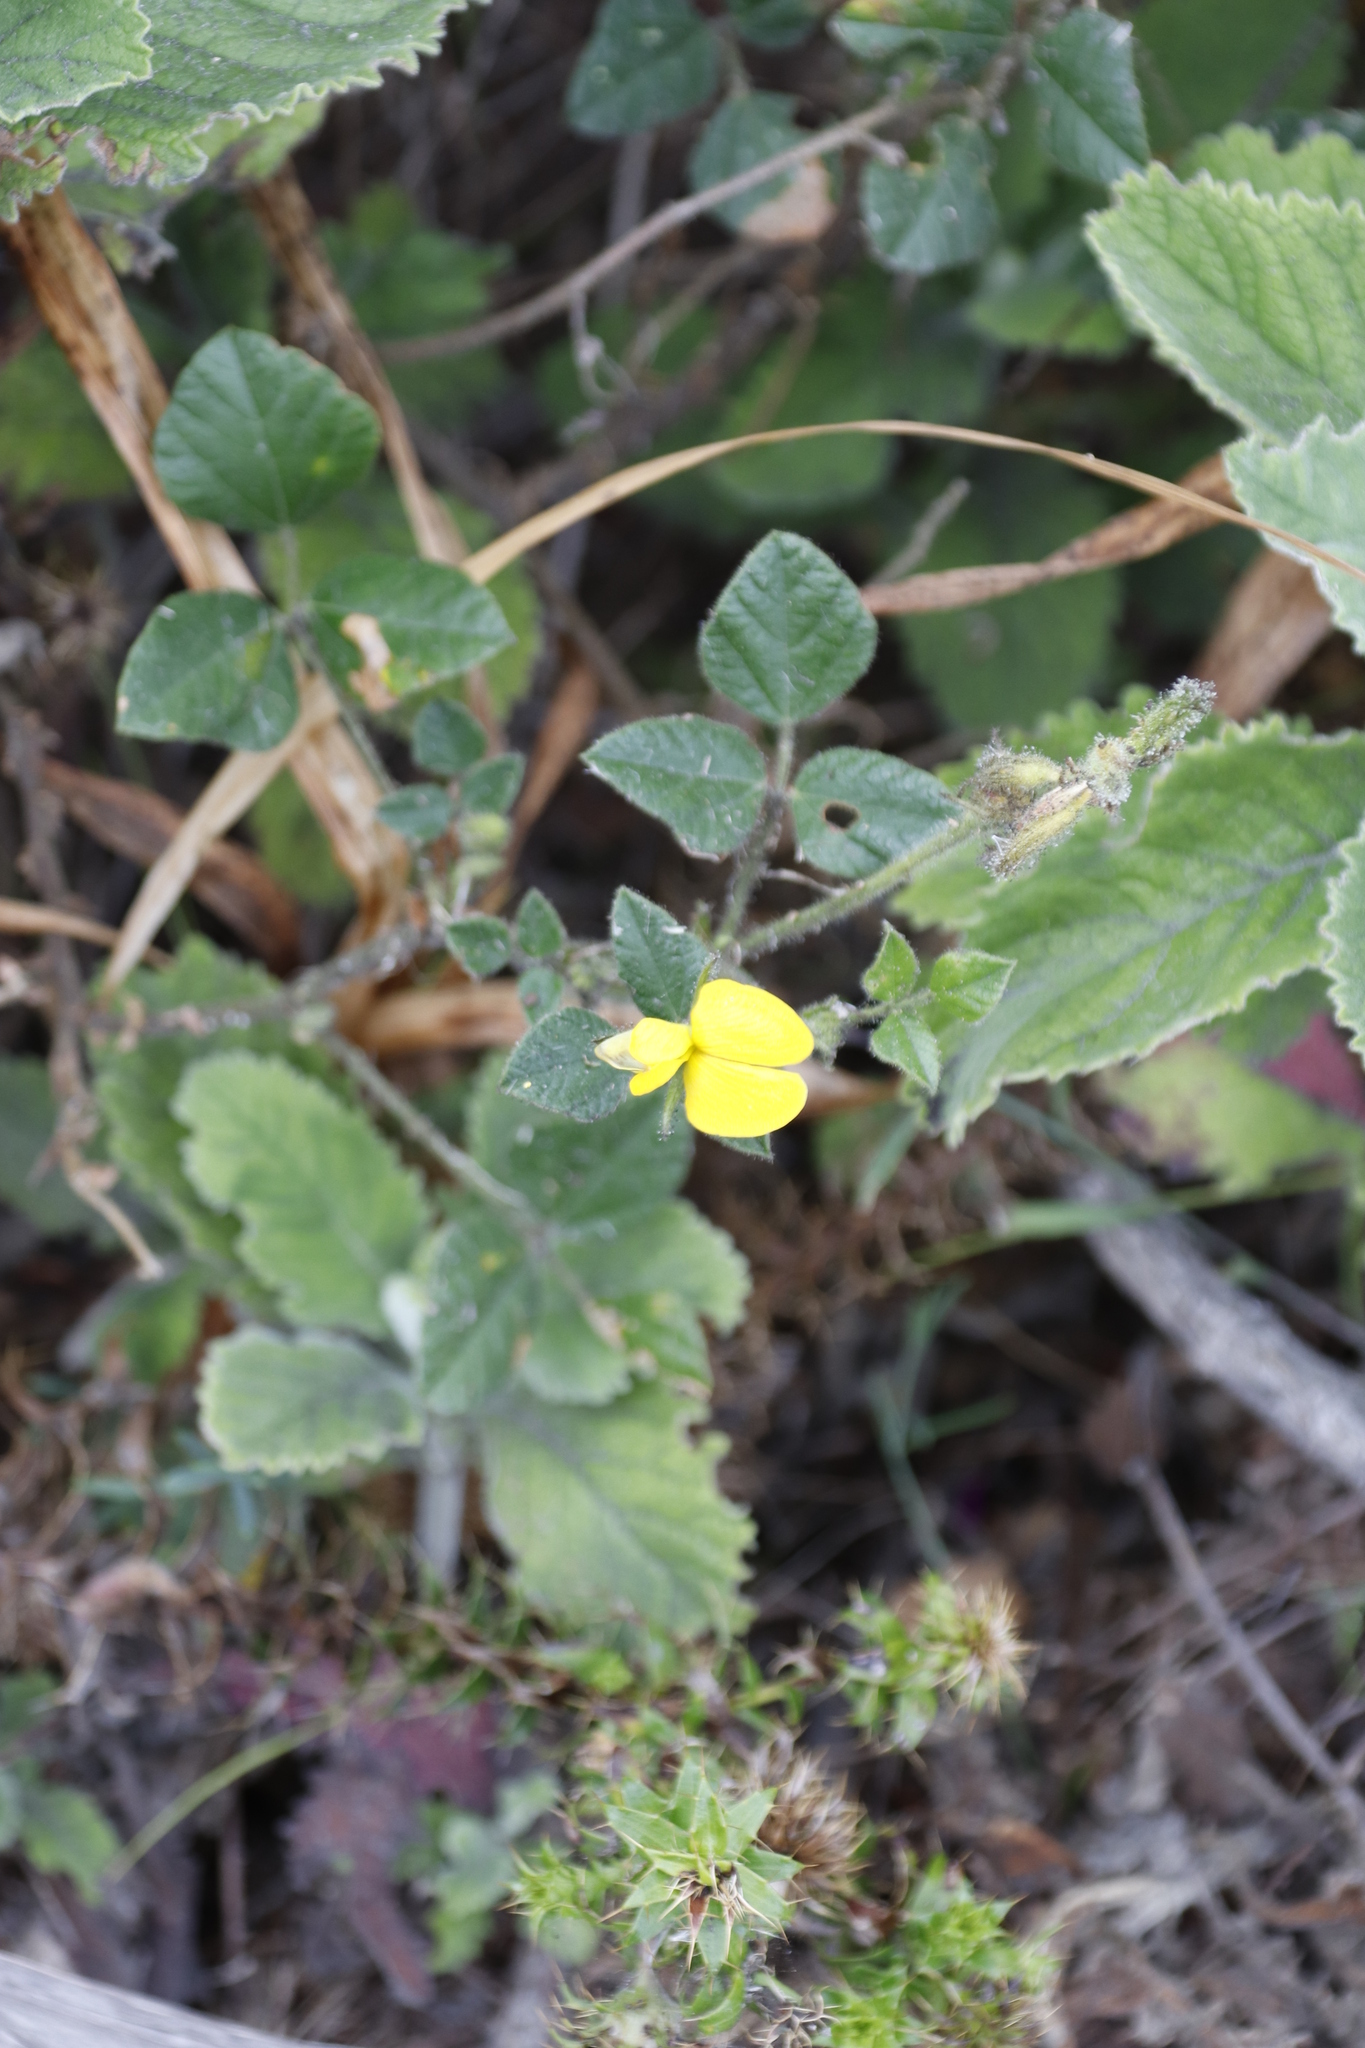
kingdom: Plantae
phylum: Tracheophyta
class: Magnoliopsida
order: Fabales
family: Fabaceae
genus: Bolusafra
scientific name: Bolusafra bituminosa
